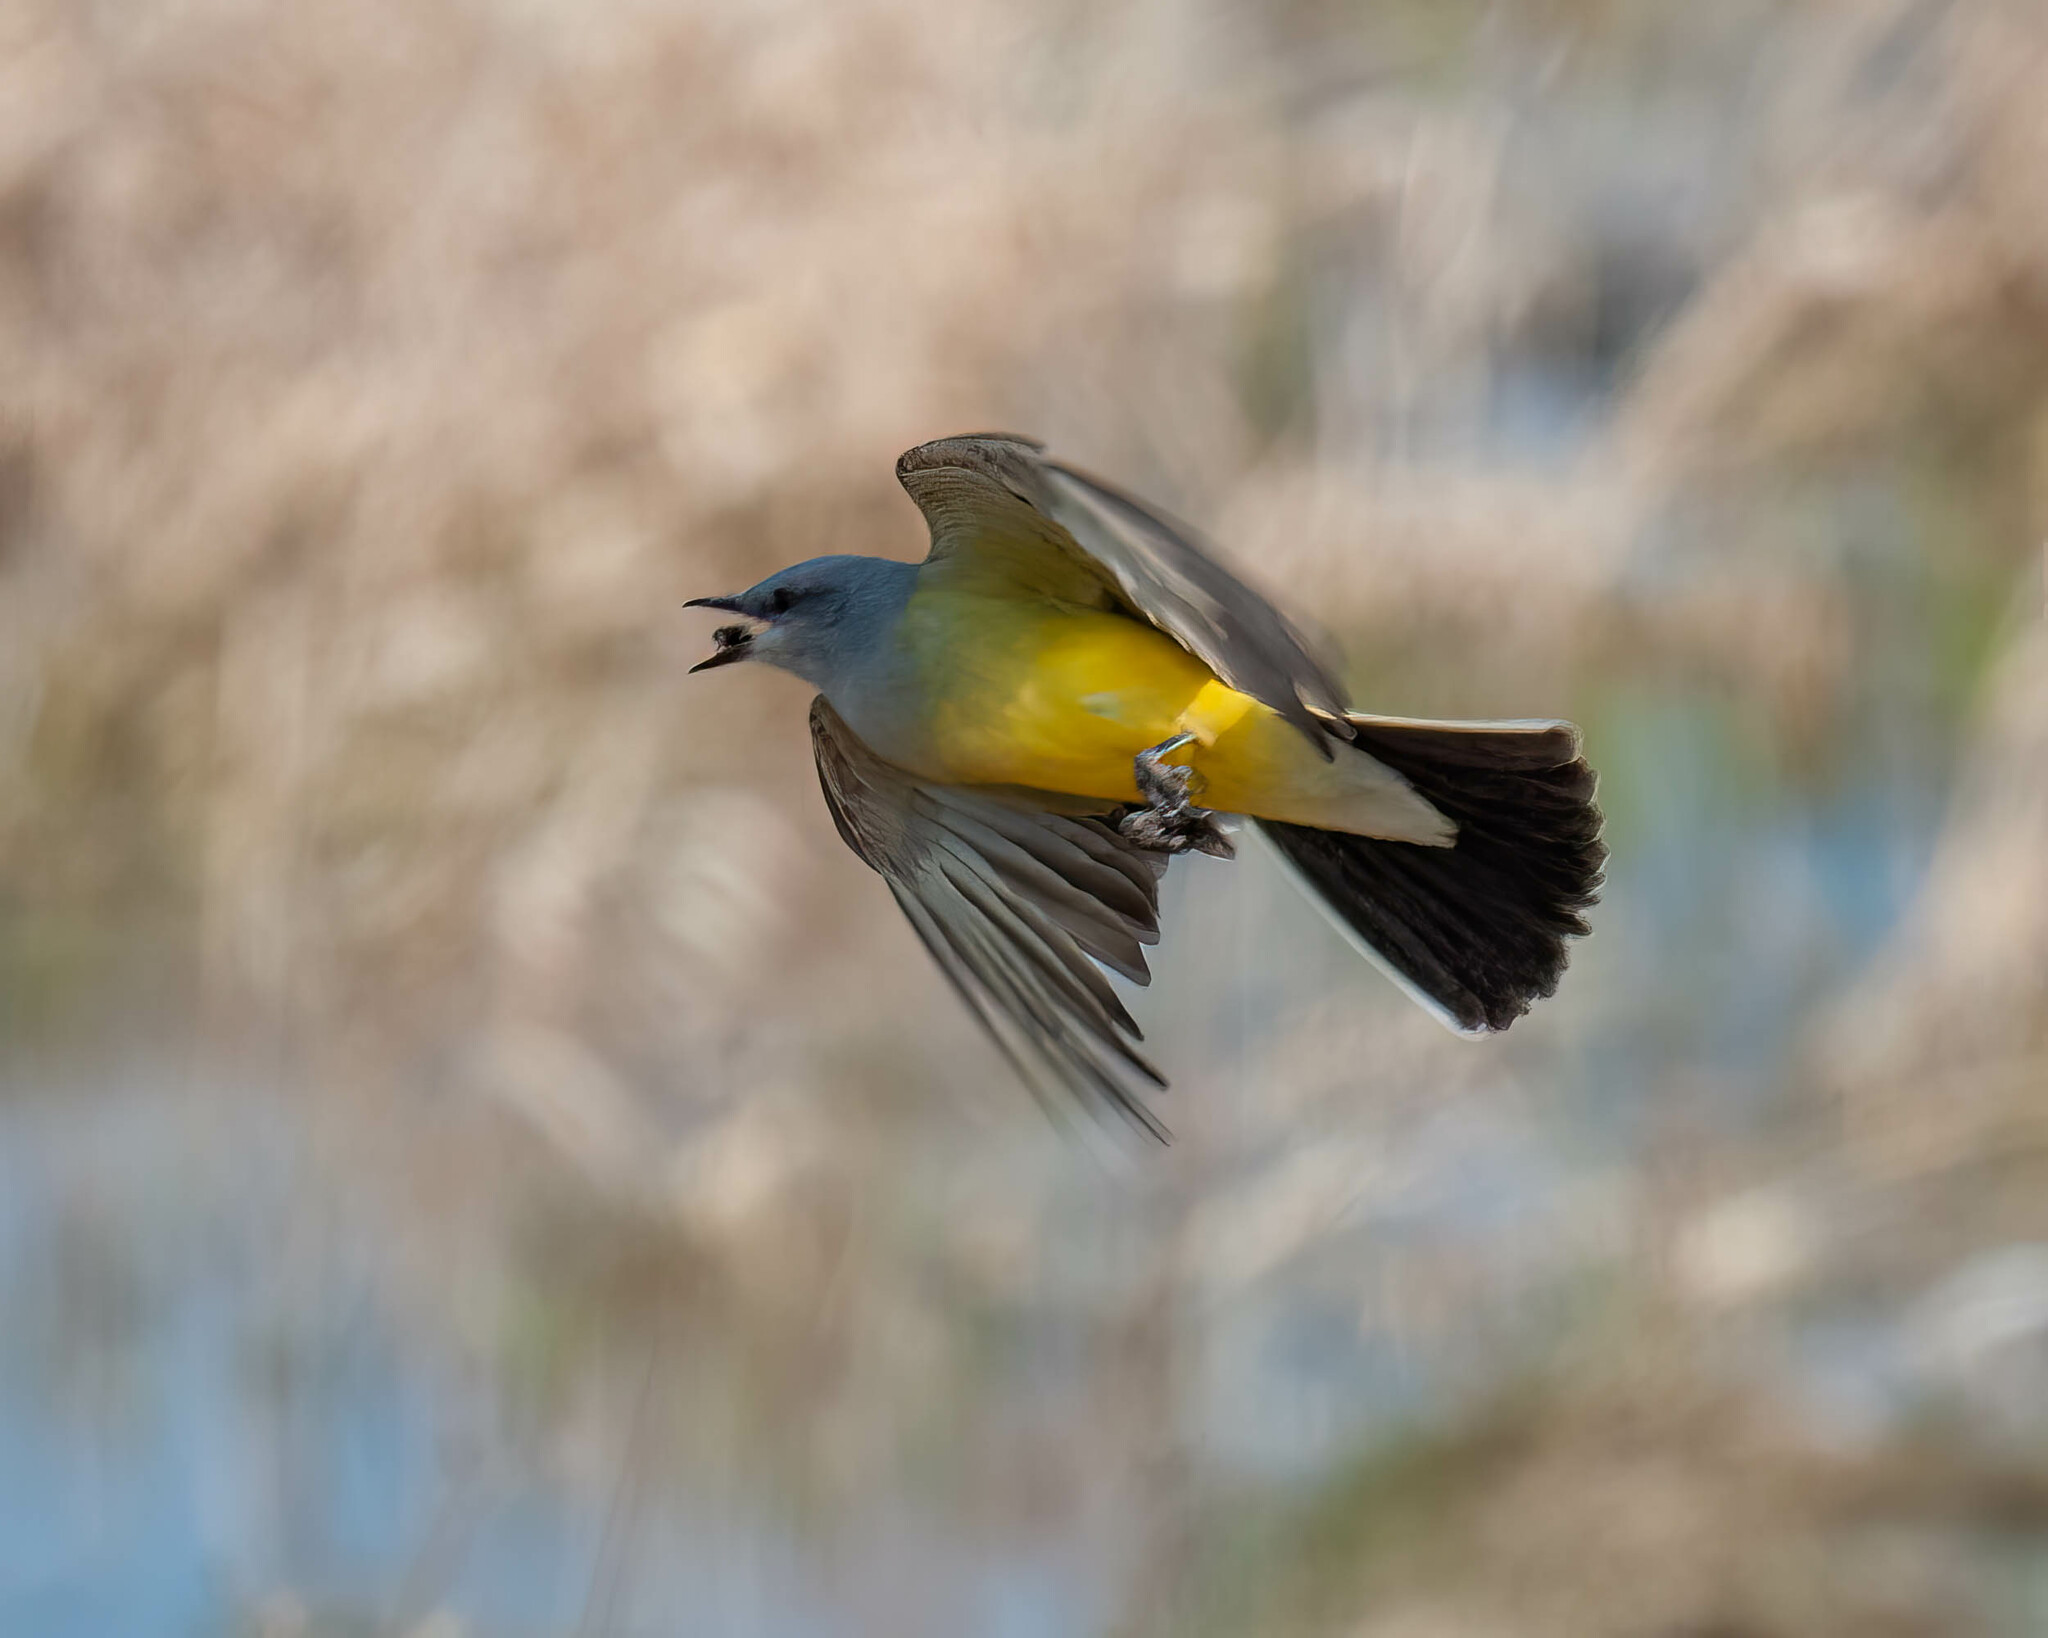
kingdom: Animalia
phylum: Chordata
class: Aves
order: Passeriformes
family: Tyrannidae
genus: Tyrannus
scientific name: Tyrannus verticalis
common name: Western kingbird
